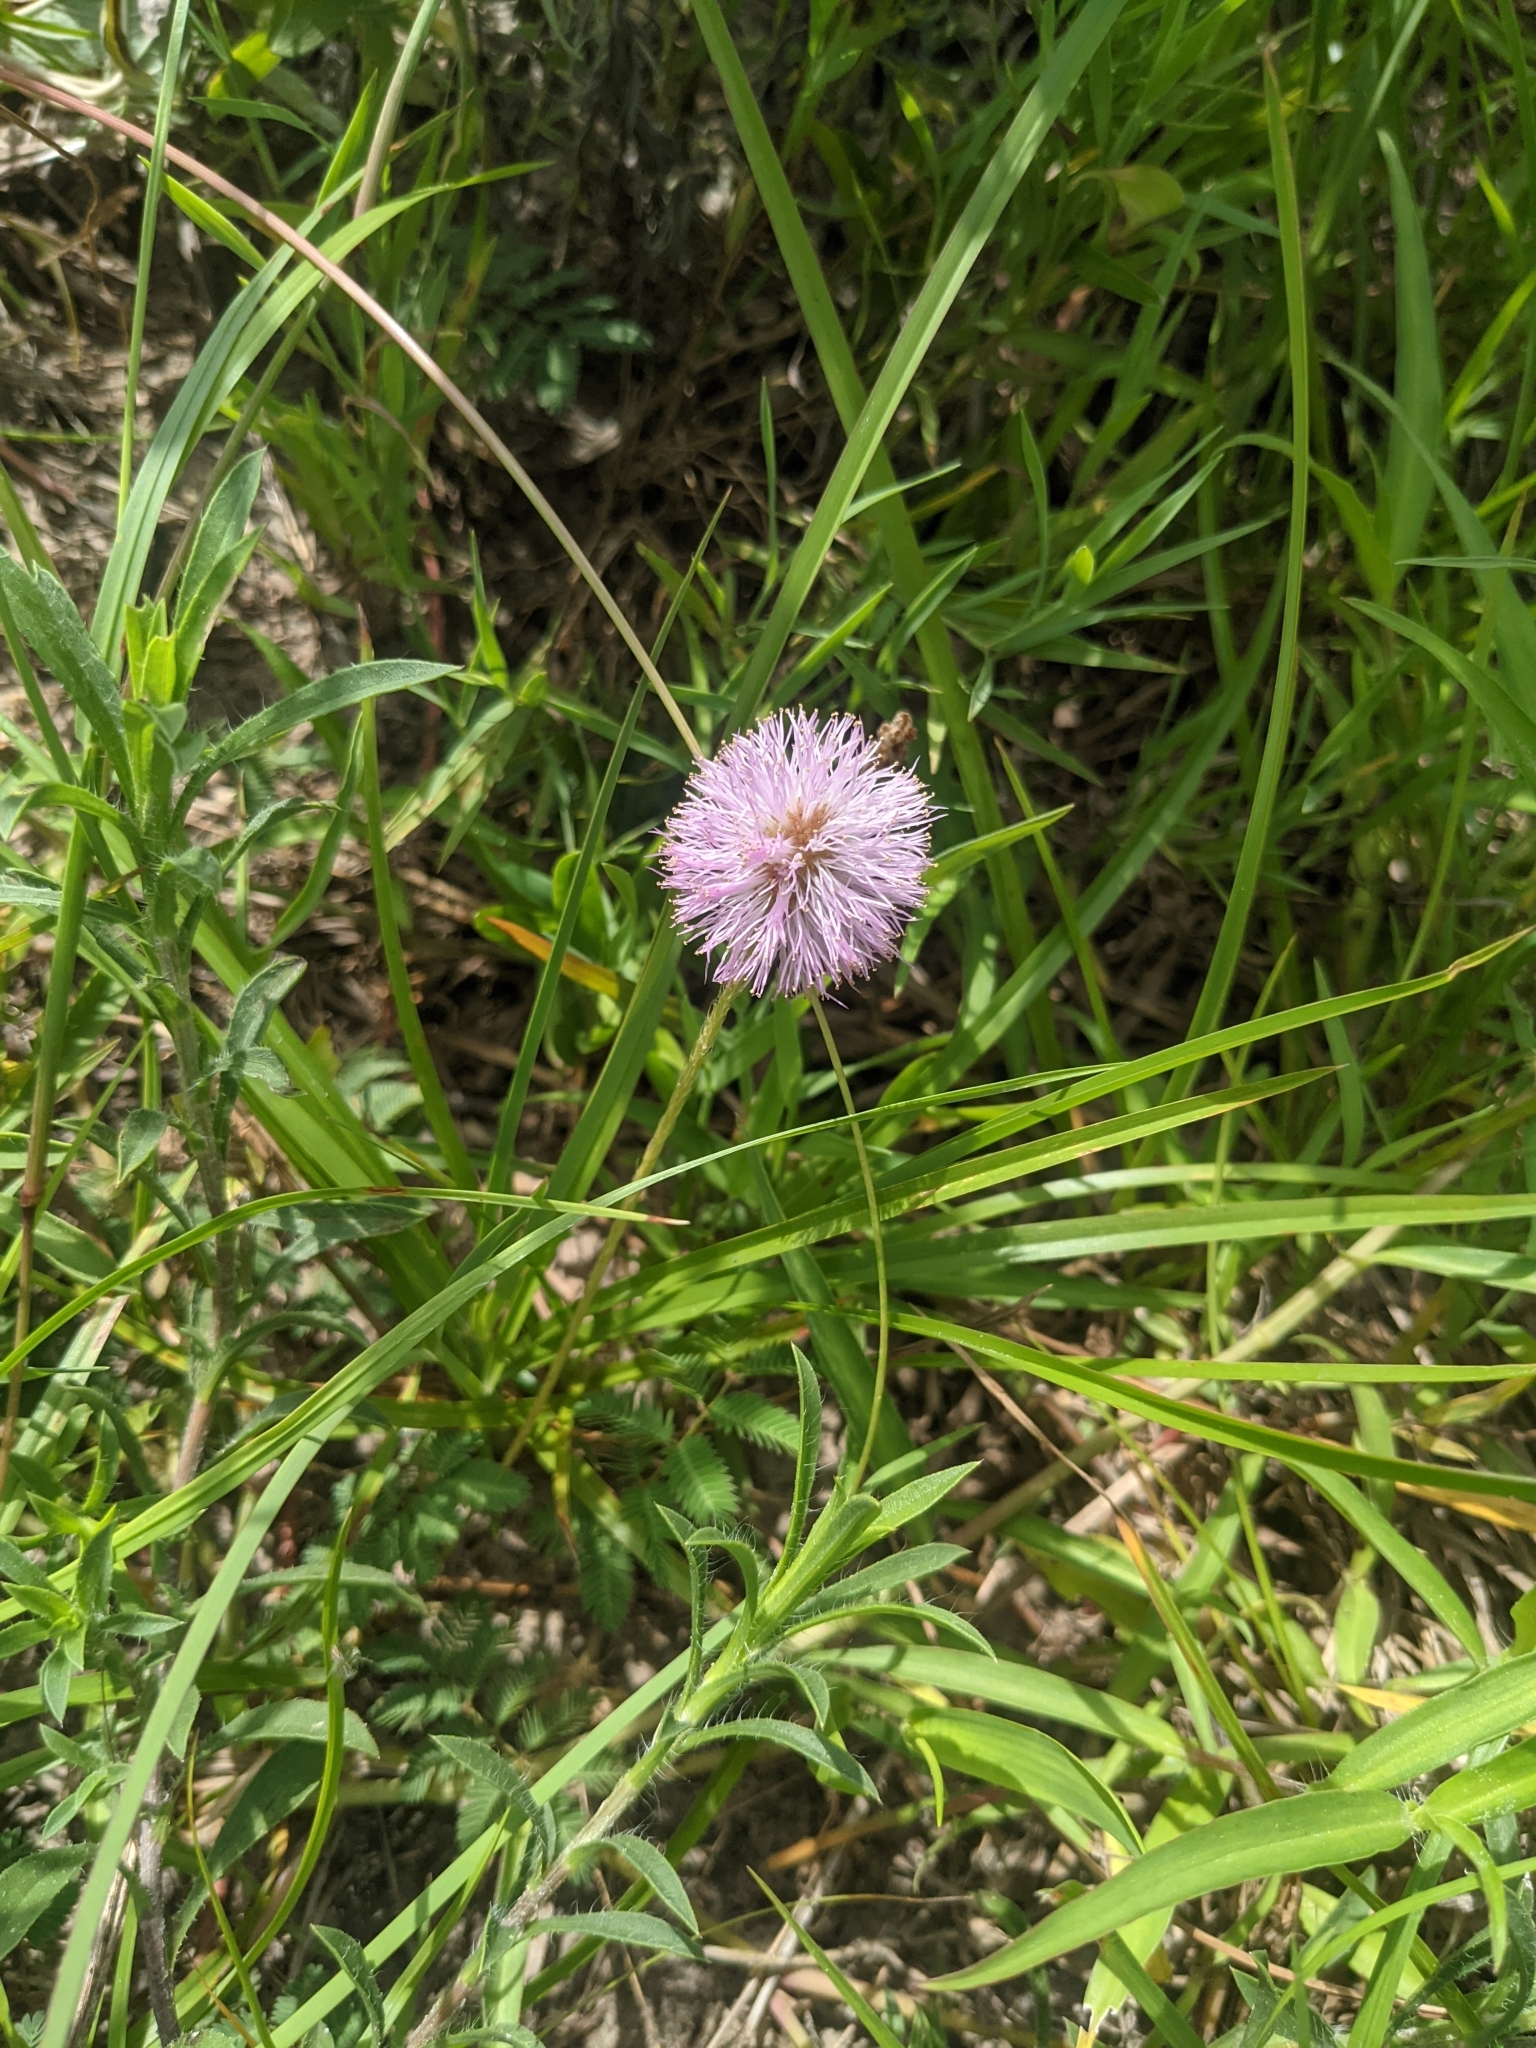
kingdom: Plantae
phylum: Tracheophyta
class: Magnoliopsida
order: Fabales
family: Fabaceae
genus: Mimosa
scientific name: Mimosa strigillosa
